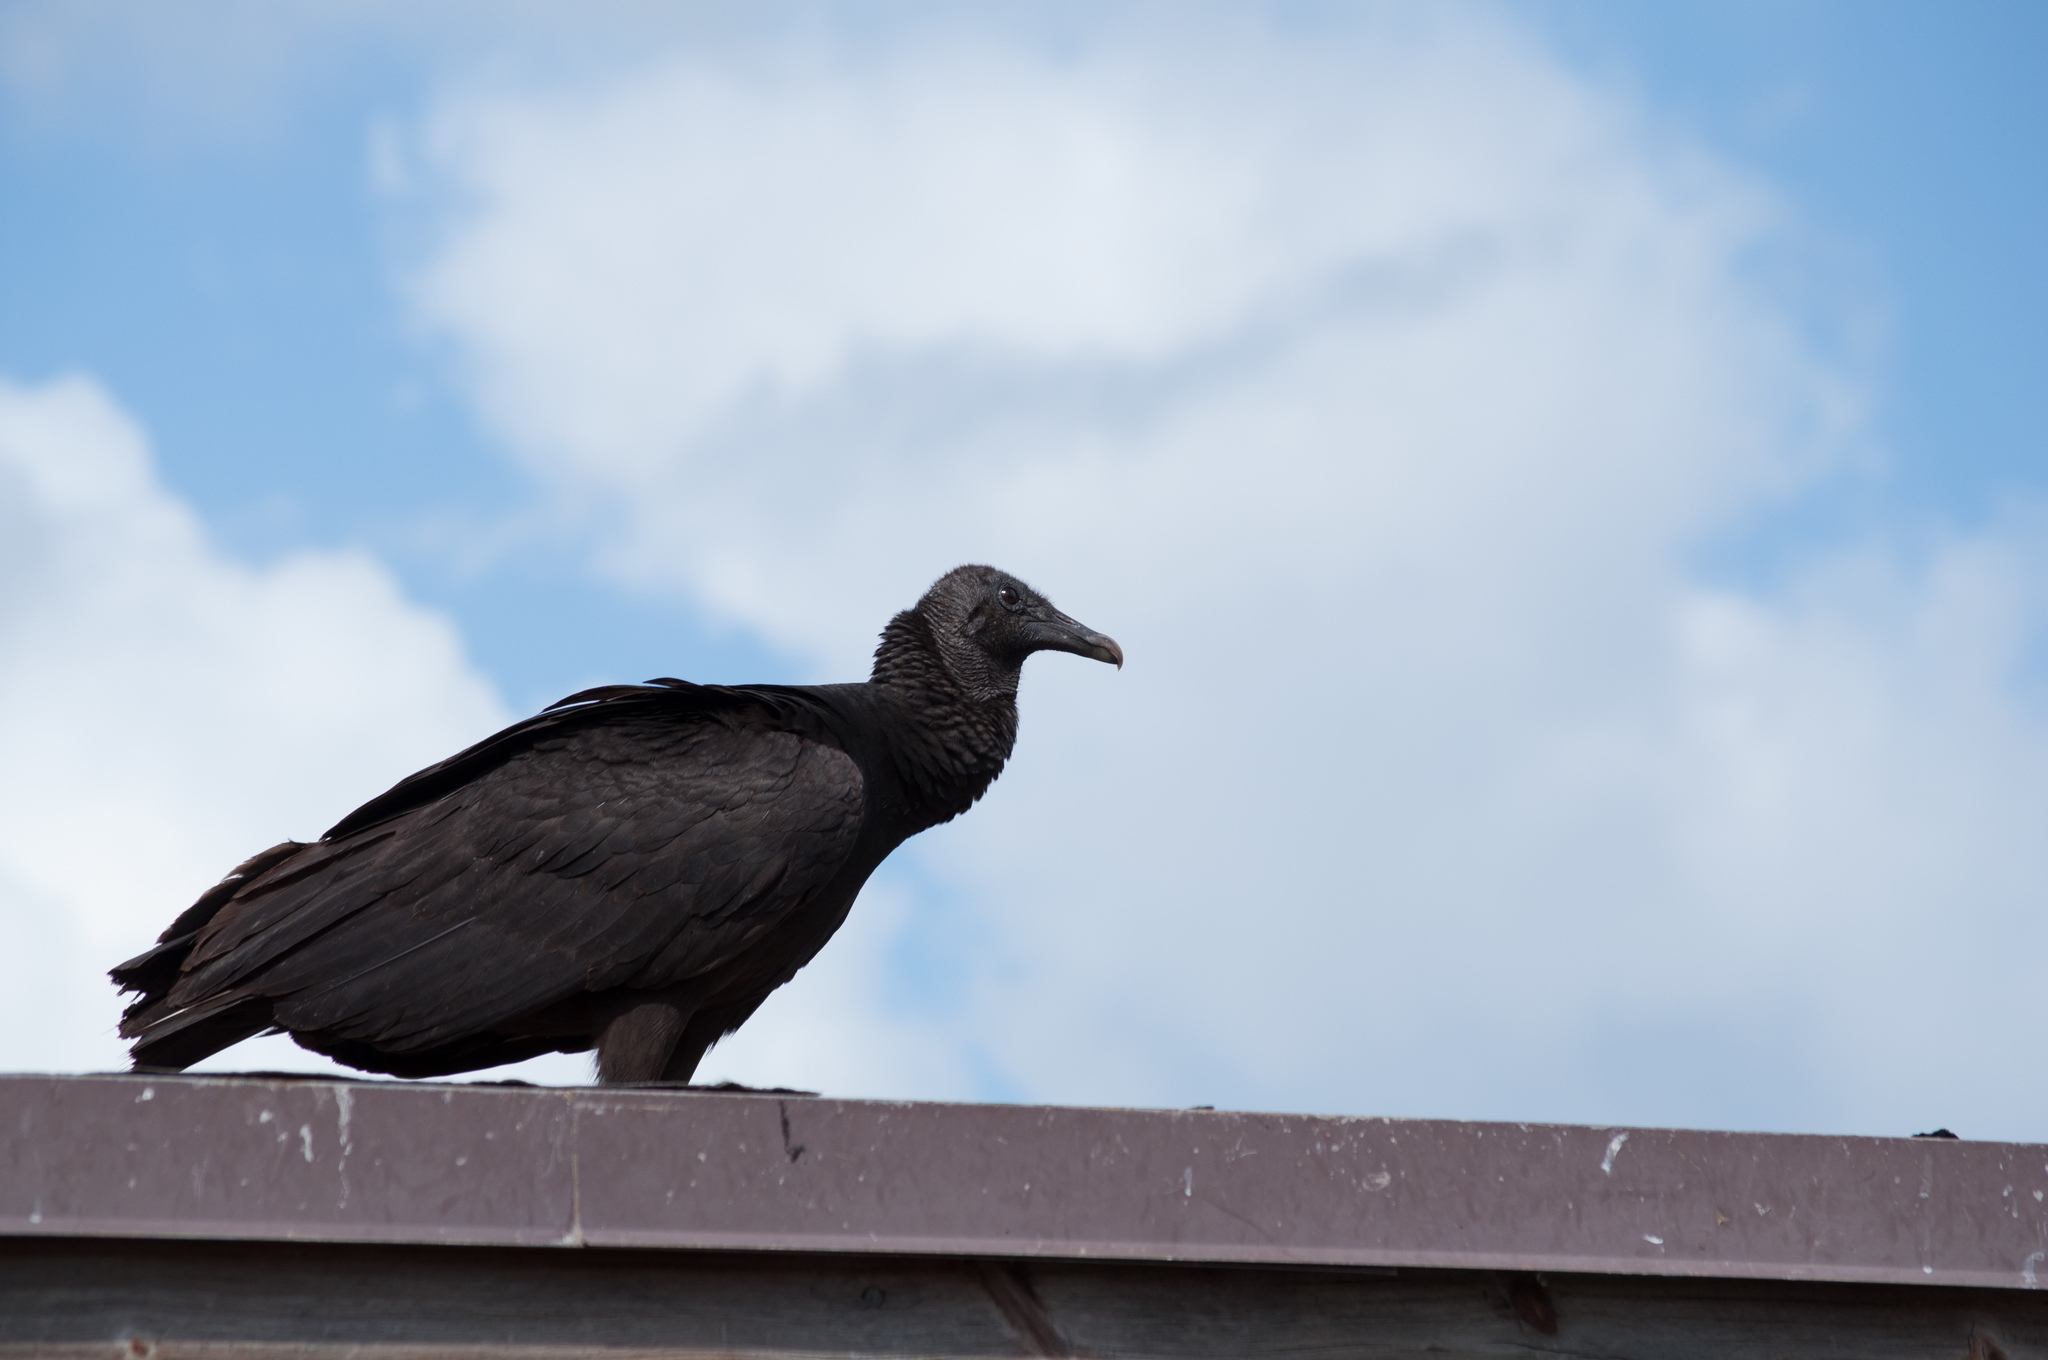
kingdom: Animalia
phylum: Chordata
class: Aves
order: Accipitriformes
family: Cathartidae
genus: Coragyps
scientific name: Coragyps atratus
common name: Black vulture
